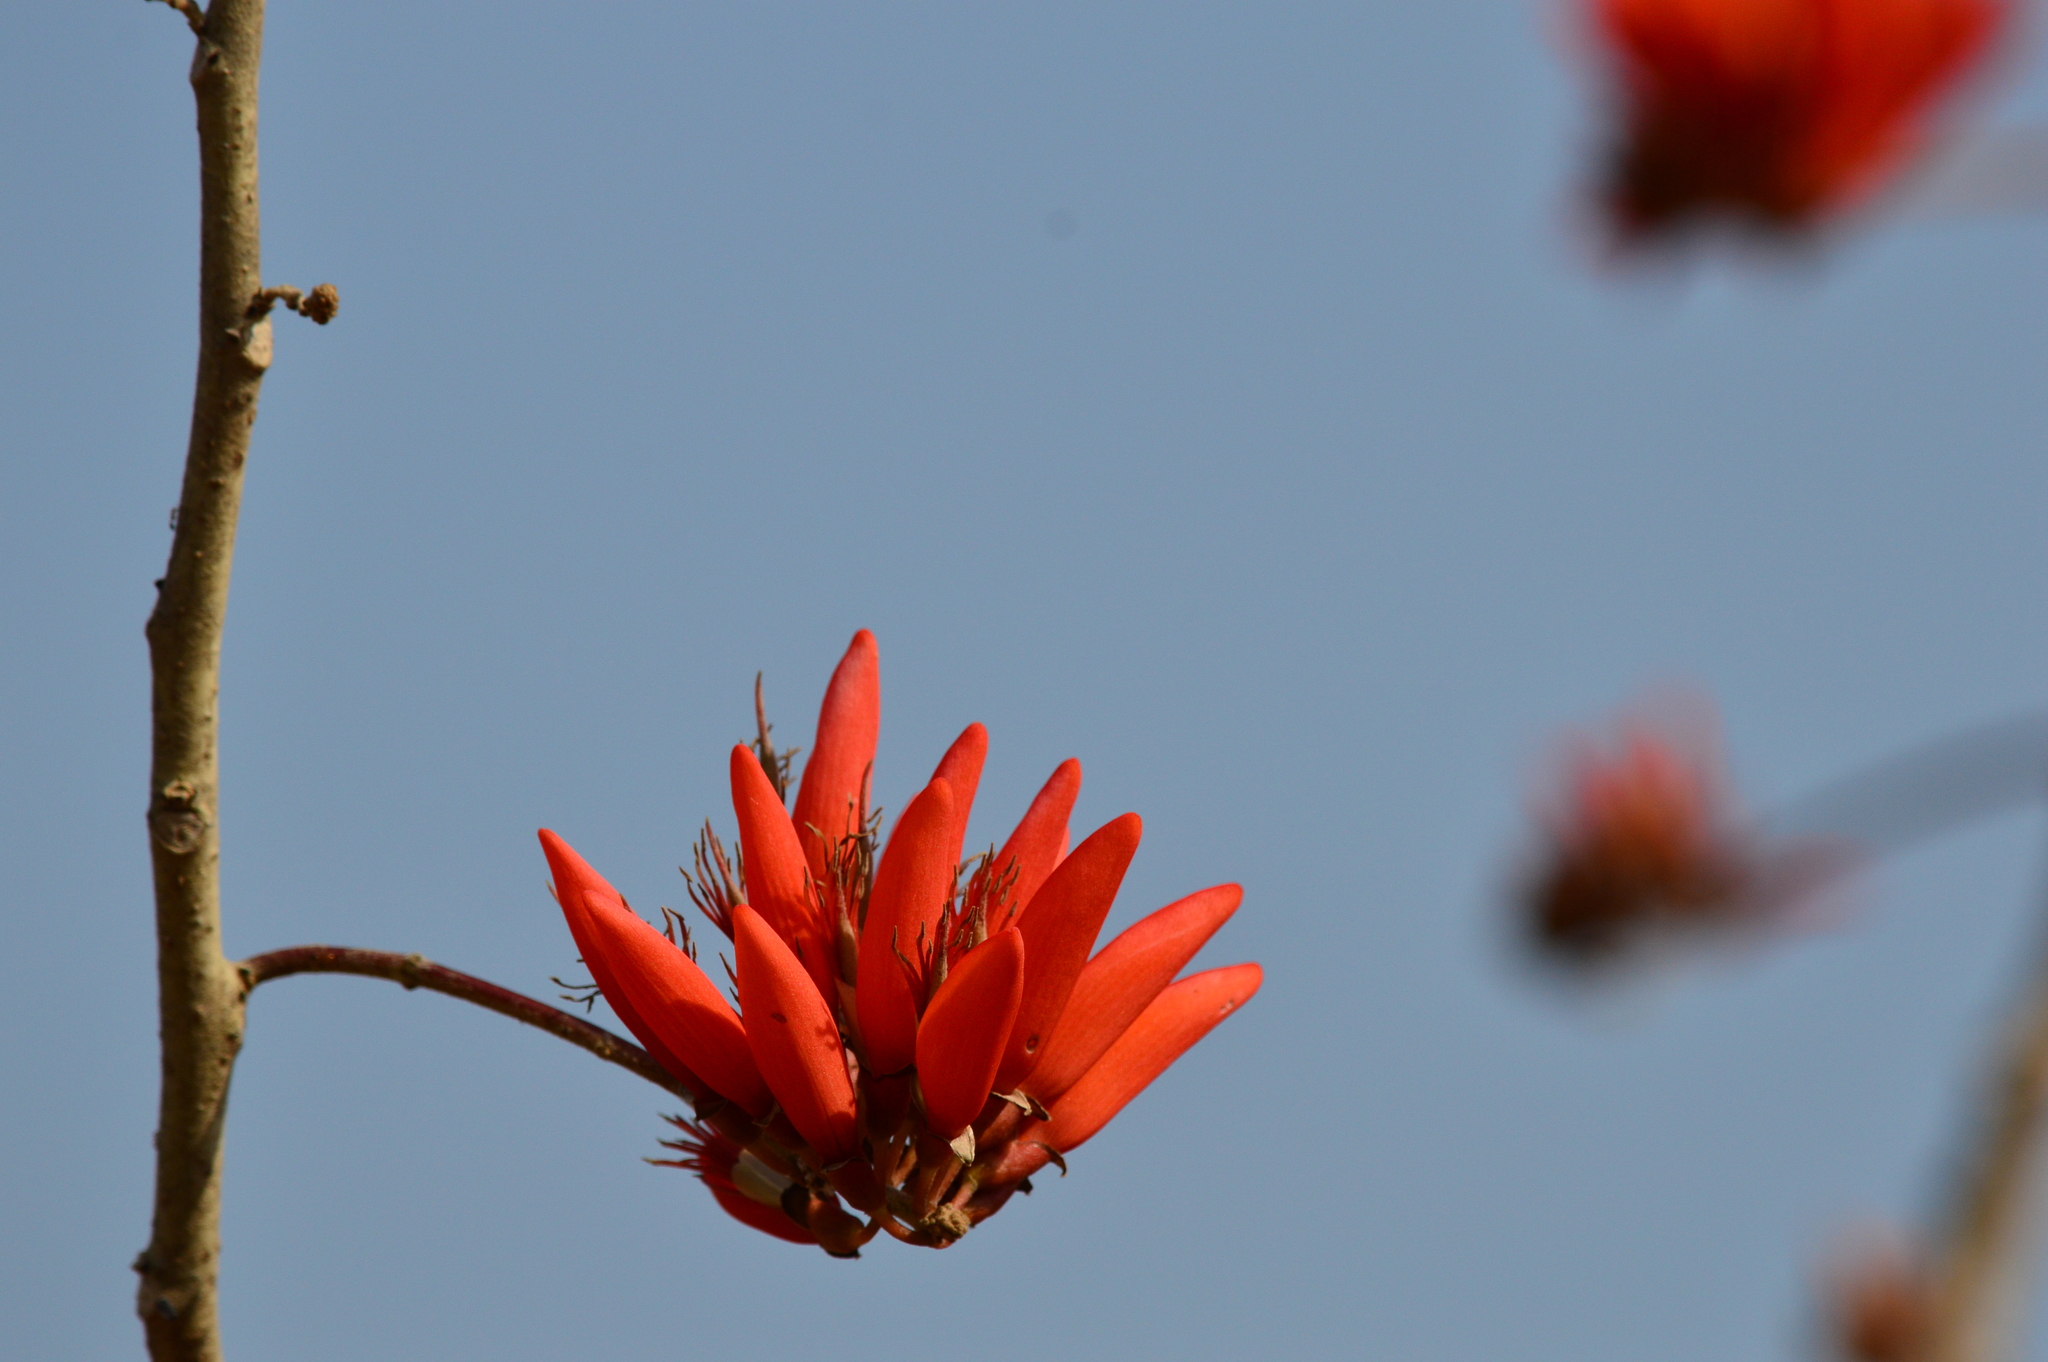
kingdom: Plantae
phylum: Tracheophyta
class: Magnoliopsida
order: Fabales
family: Fabaceae
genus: Erythrina
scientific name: Erythrina variegata
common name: Indian coral tree
